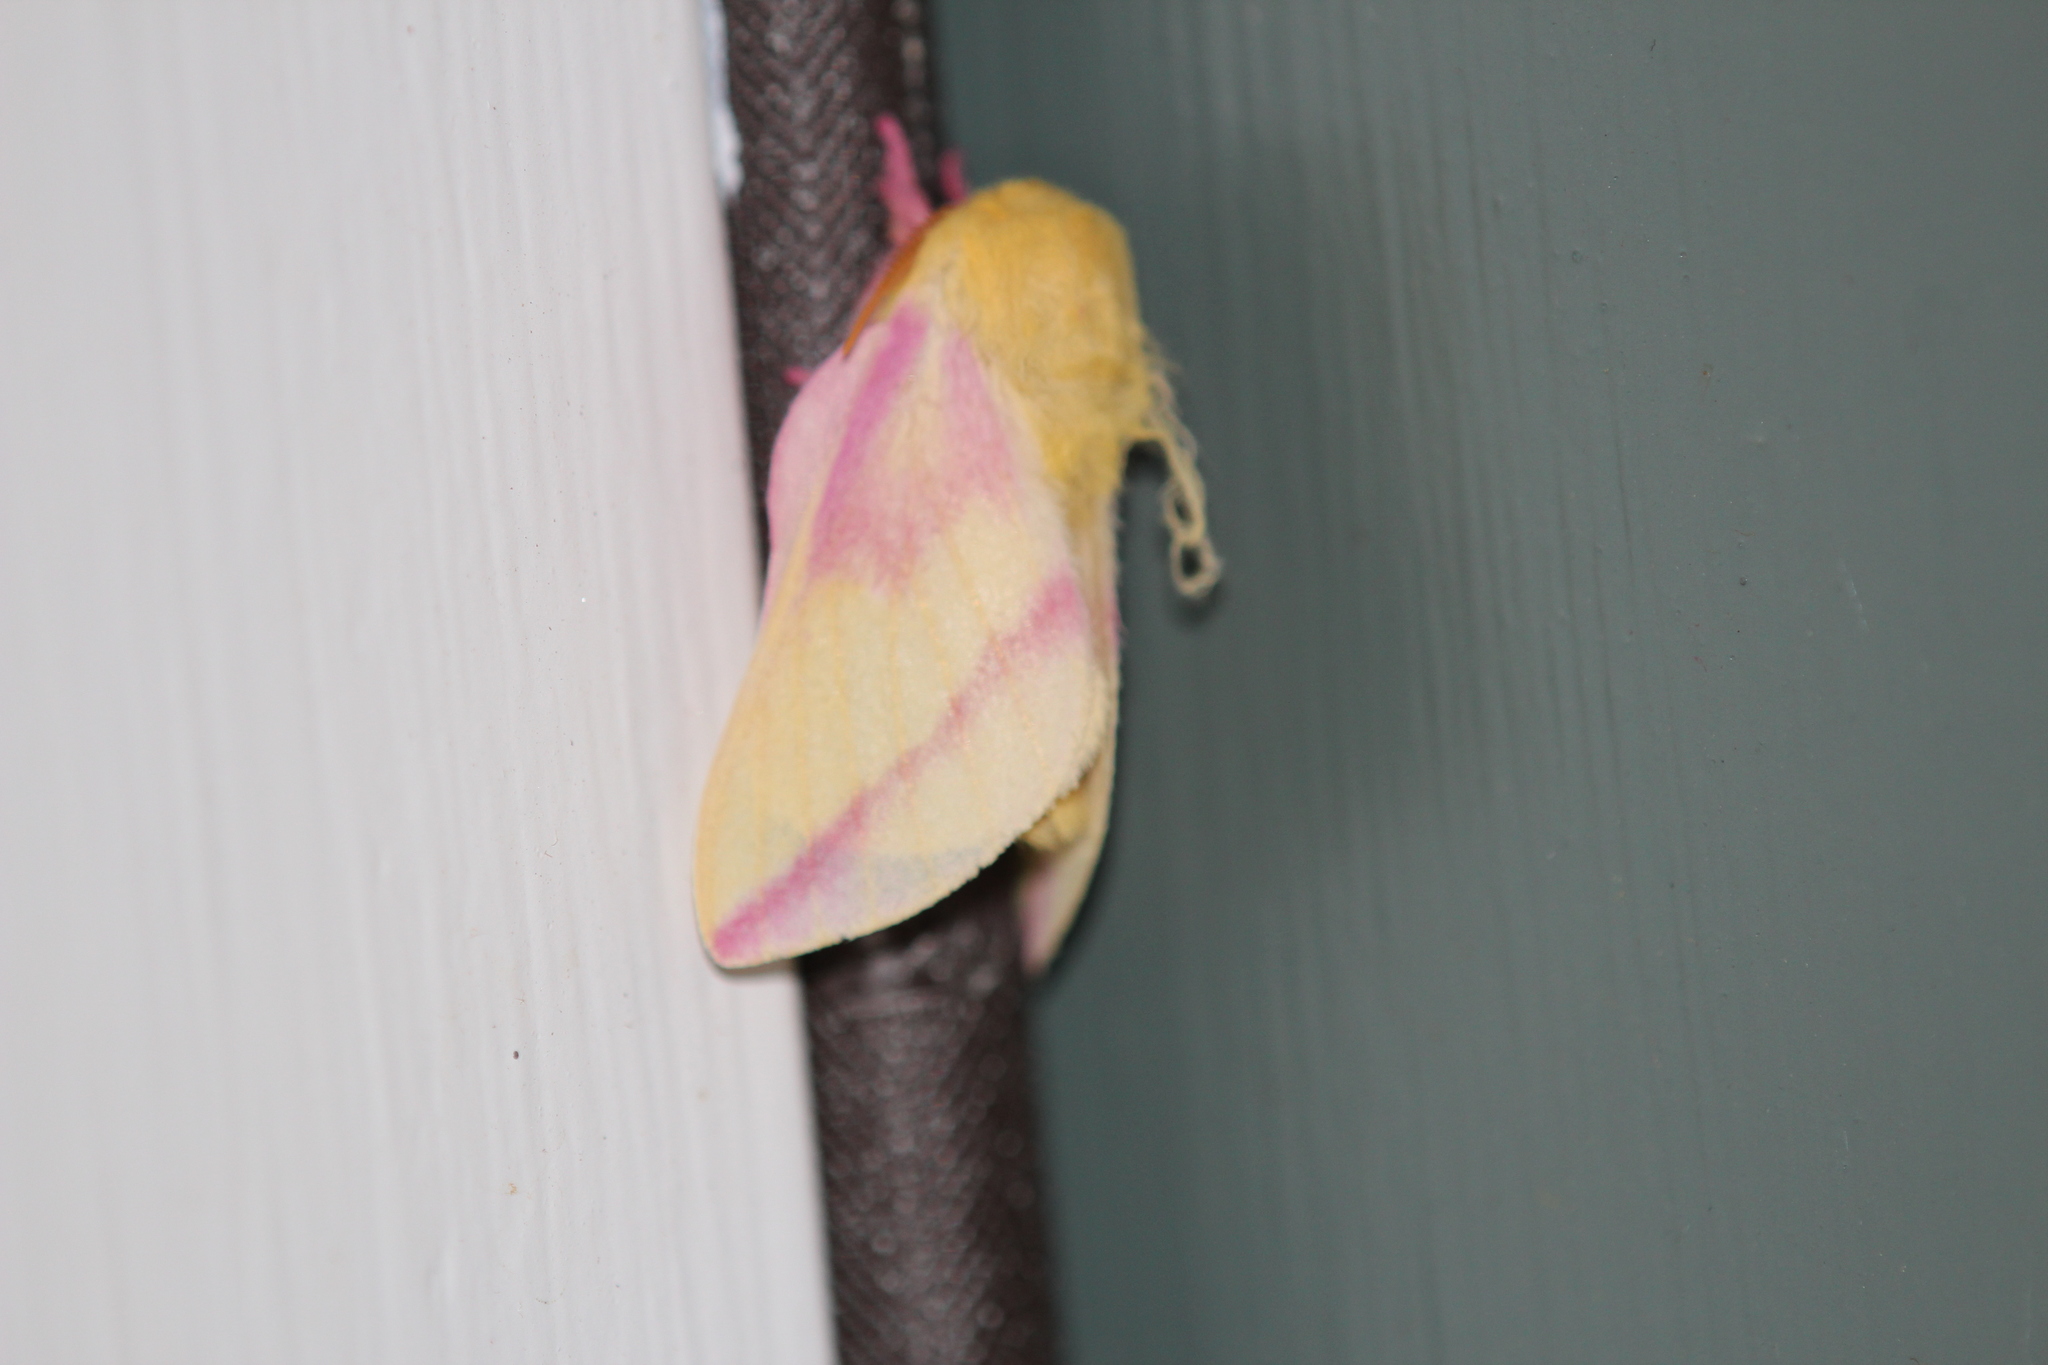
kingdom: Animalia
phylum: Arthropoda
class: Insecta
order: Lepidoptera
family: Saturniidae
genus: Dryocampa
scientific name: Dryocampa rubicunda
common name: Rosy maple moth
